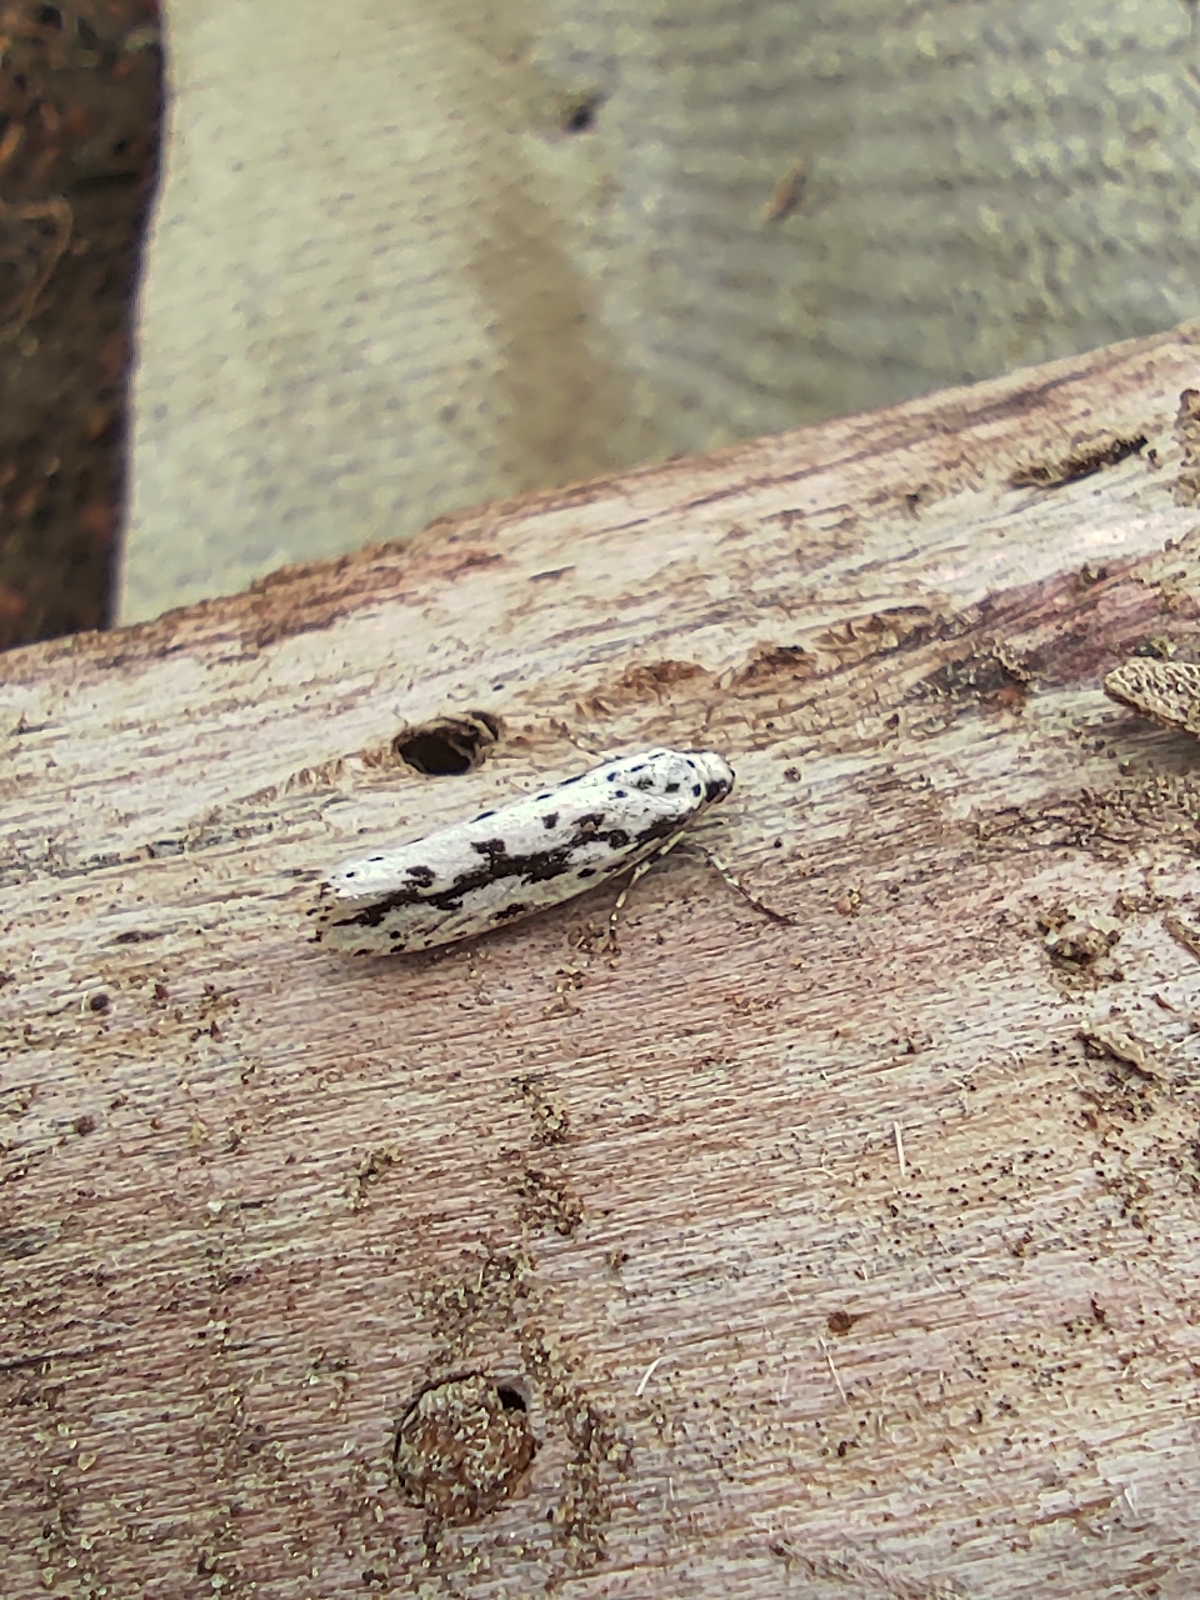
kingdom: Animalia
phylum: Arthropoda
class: Insecta
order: Lepidoptera
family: Ethmiidae
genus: Ethmia
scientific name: Ethmia candidella
